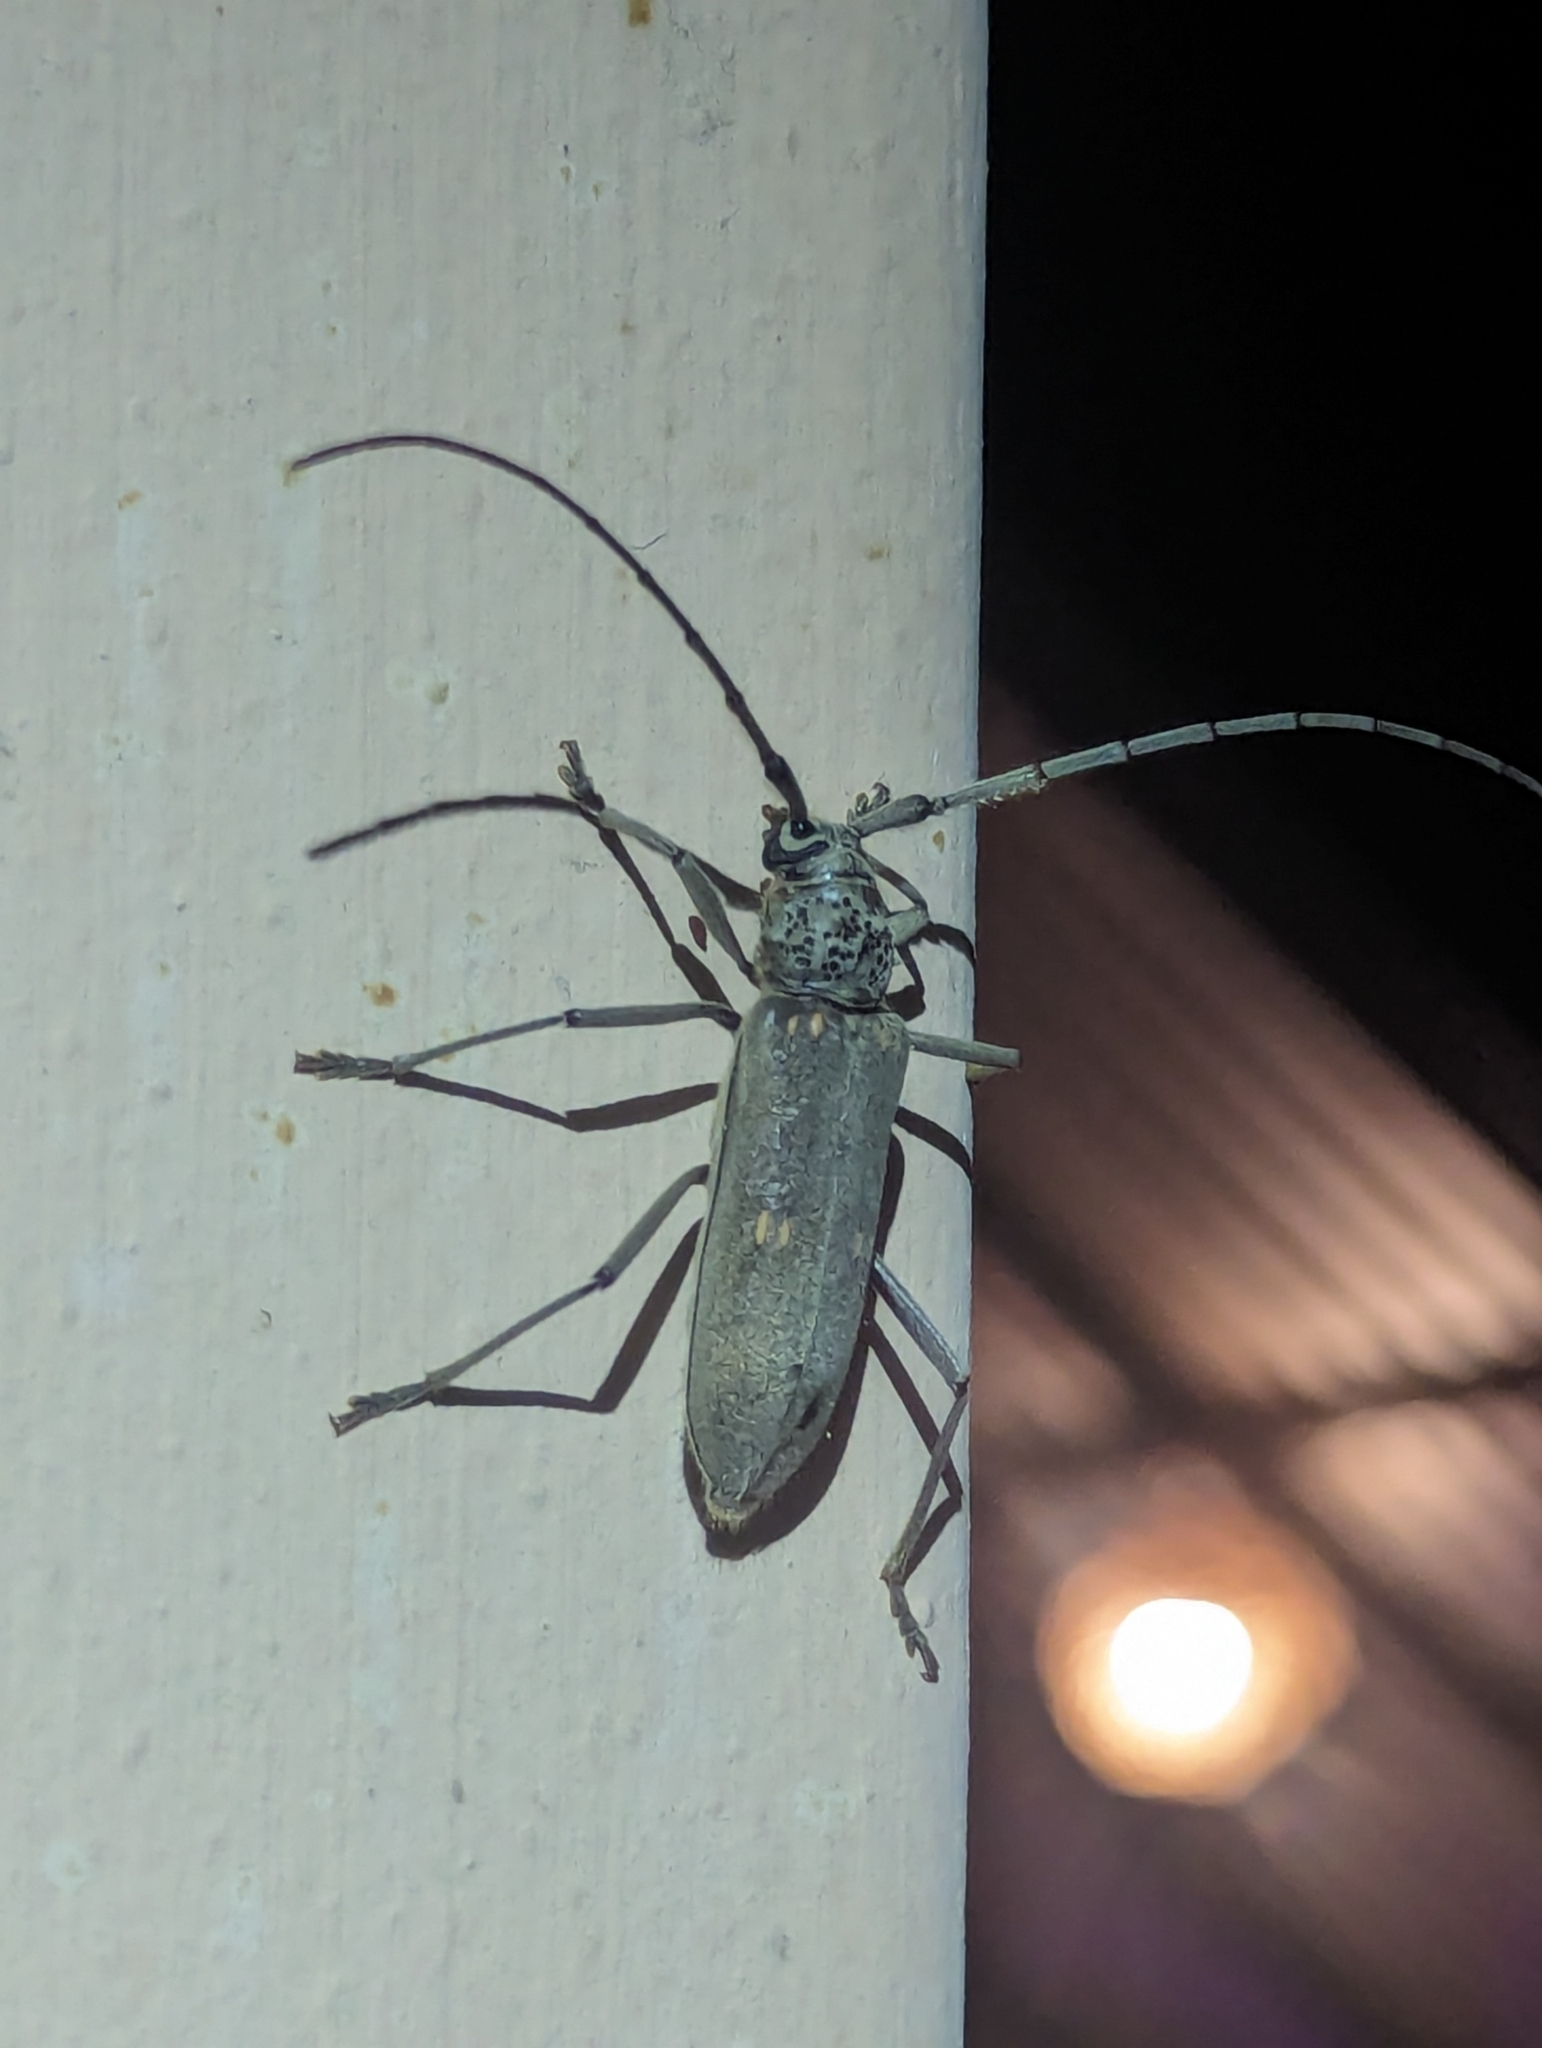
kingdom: Animalia
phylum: Arthropoda
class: Insecta
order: Coleoptera
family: Cerambycidae
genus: Susuacanga
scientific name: Susuacanga stigmatica
